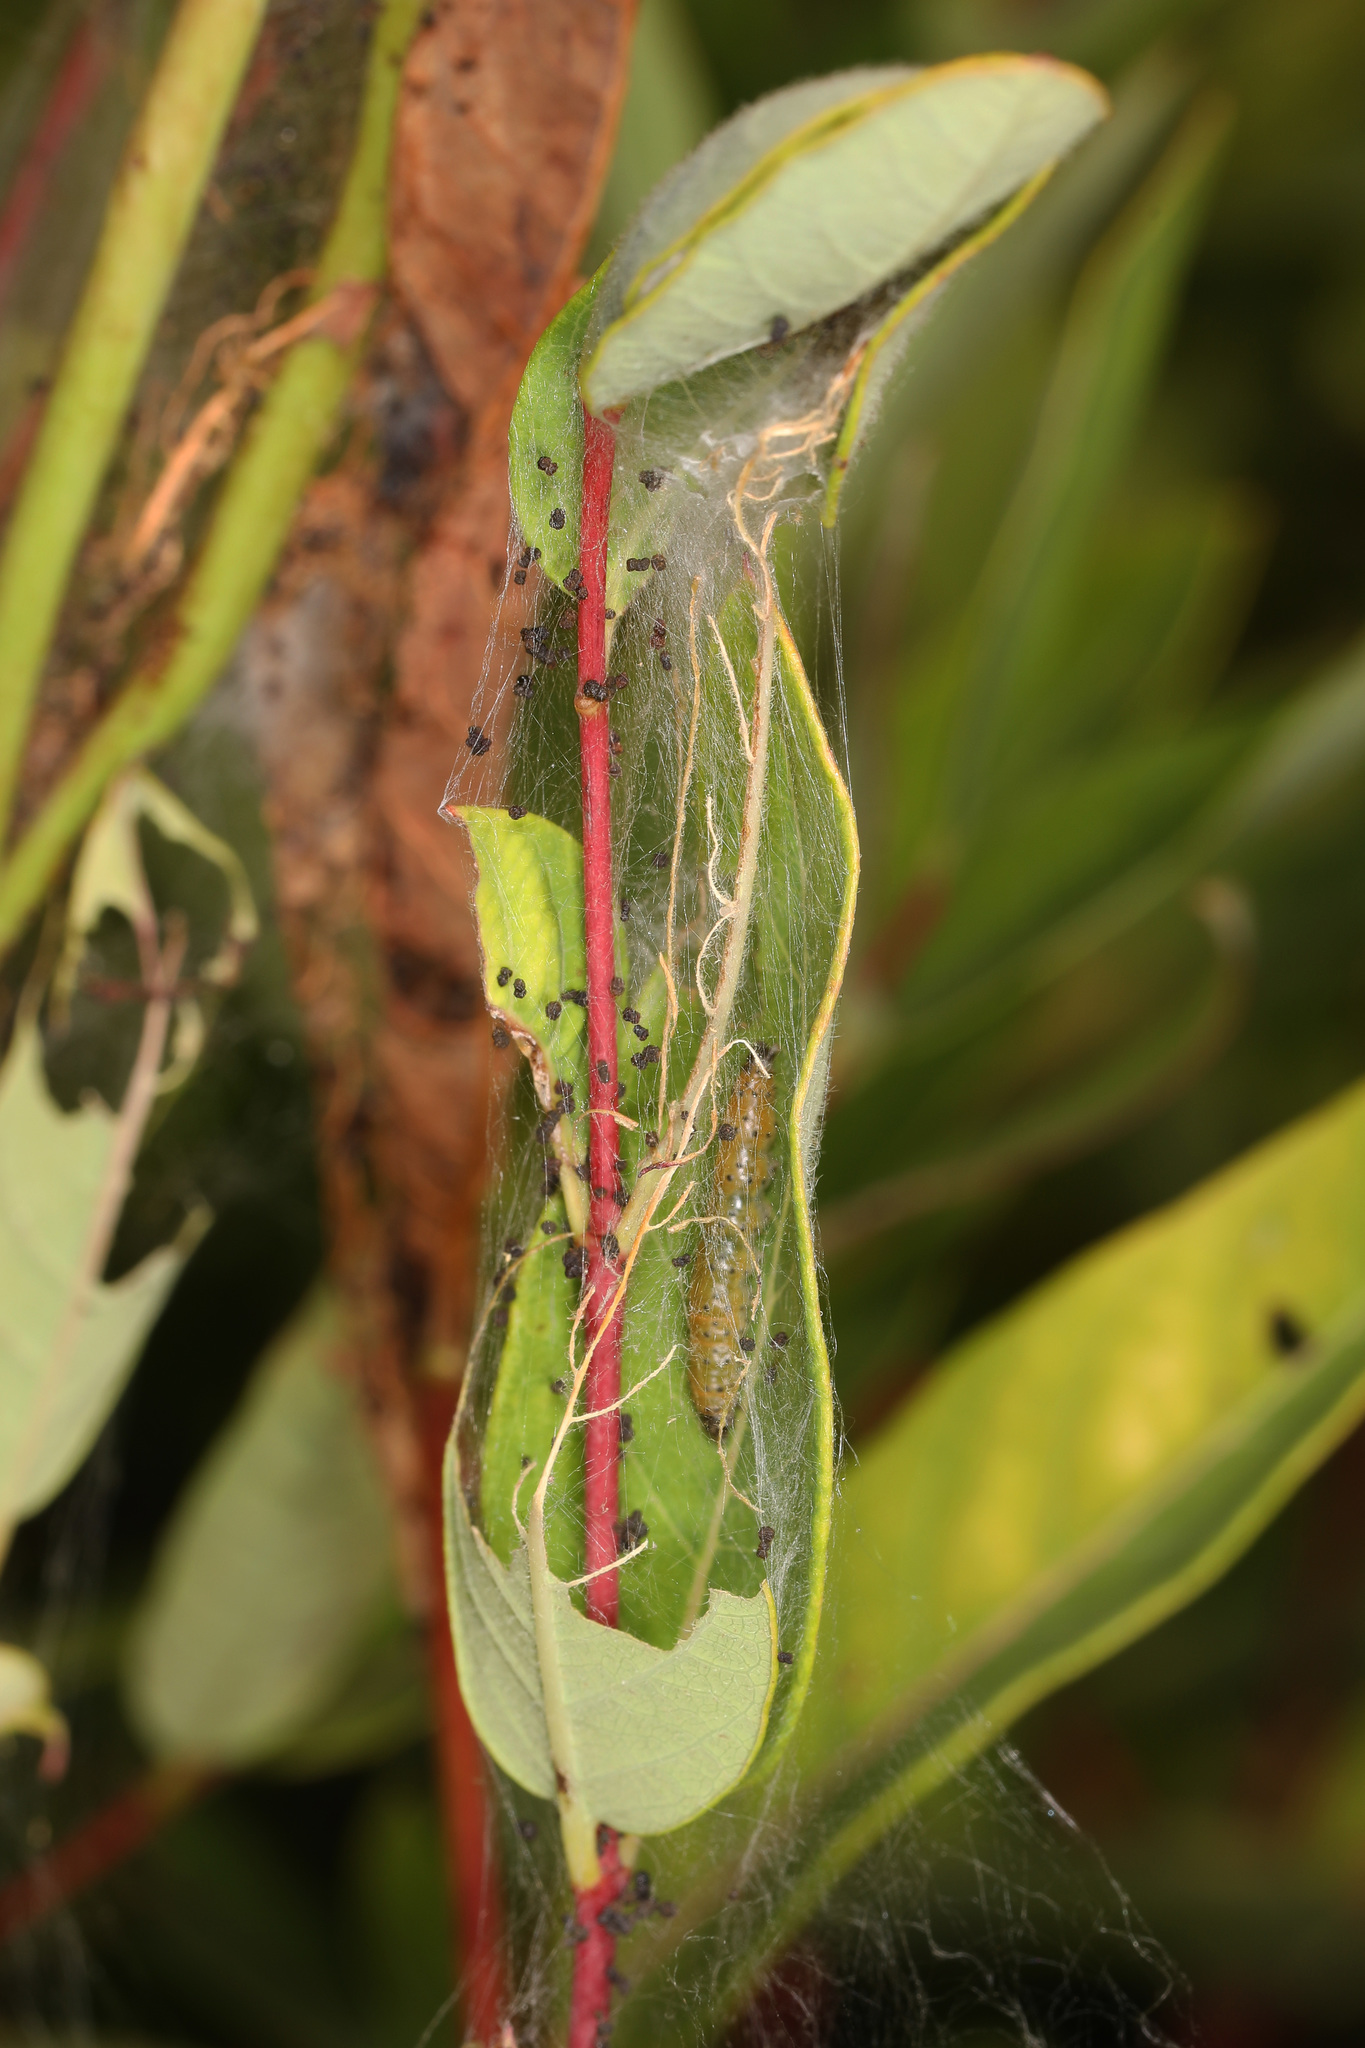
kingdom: Animalia
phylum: Arthropoda
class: Insecta
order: Lepidoptera
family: Crambidae
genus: Saucrobotys
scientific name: Saucrobotys futilalis
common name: Dogbane saucrobotys moth
